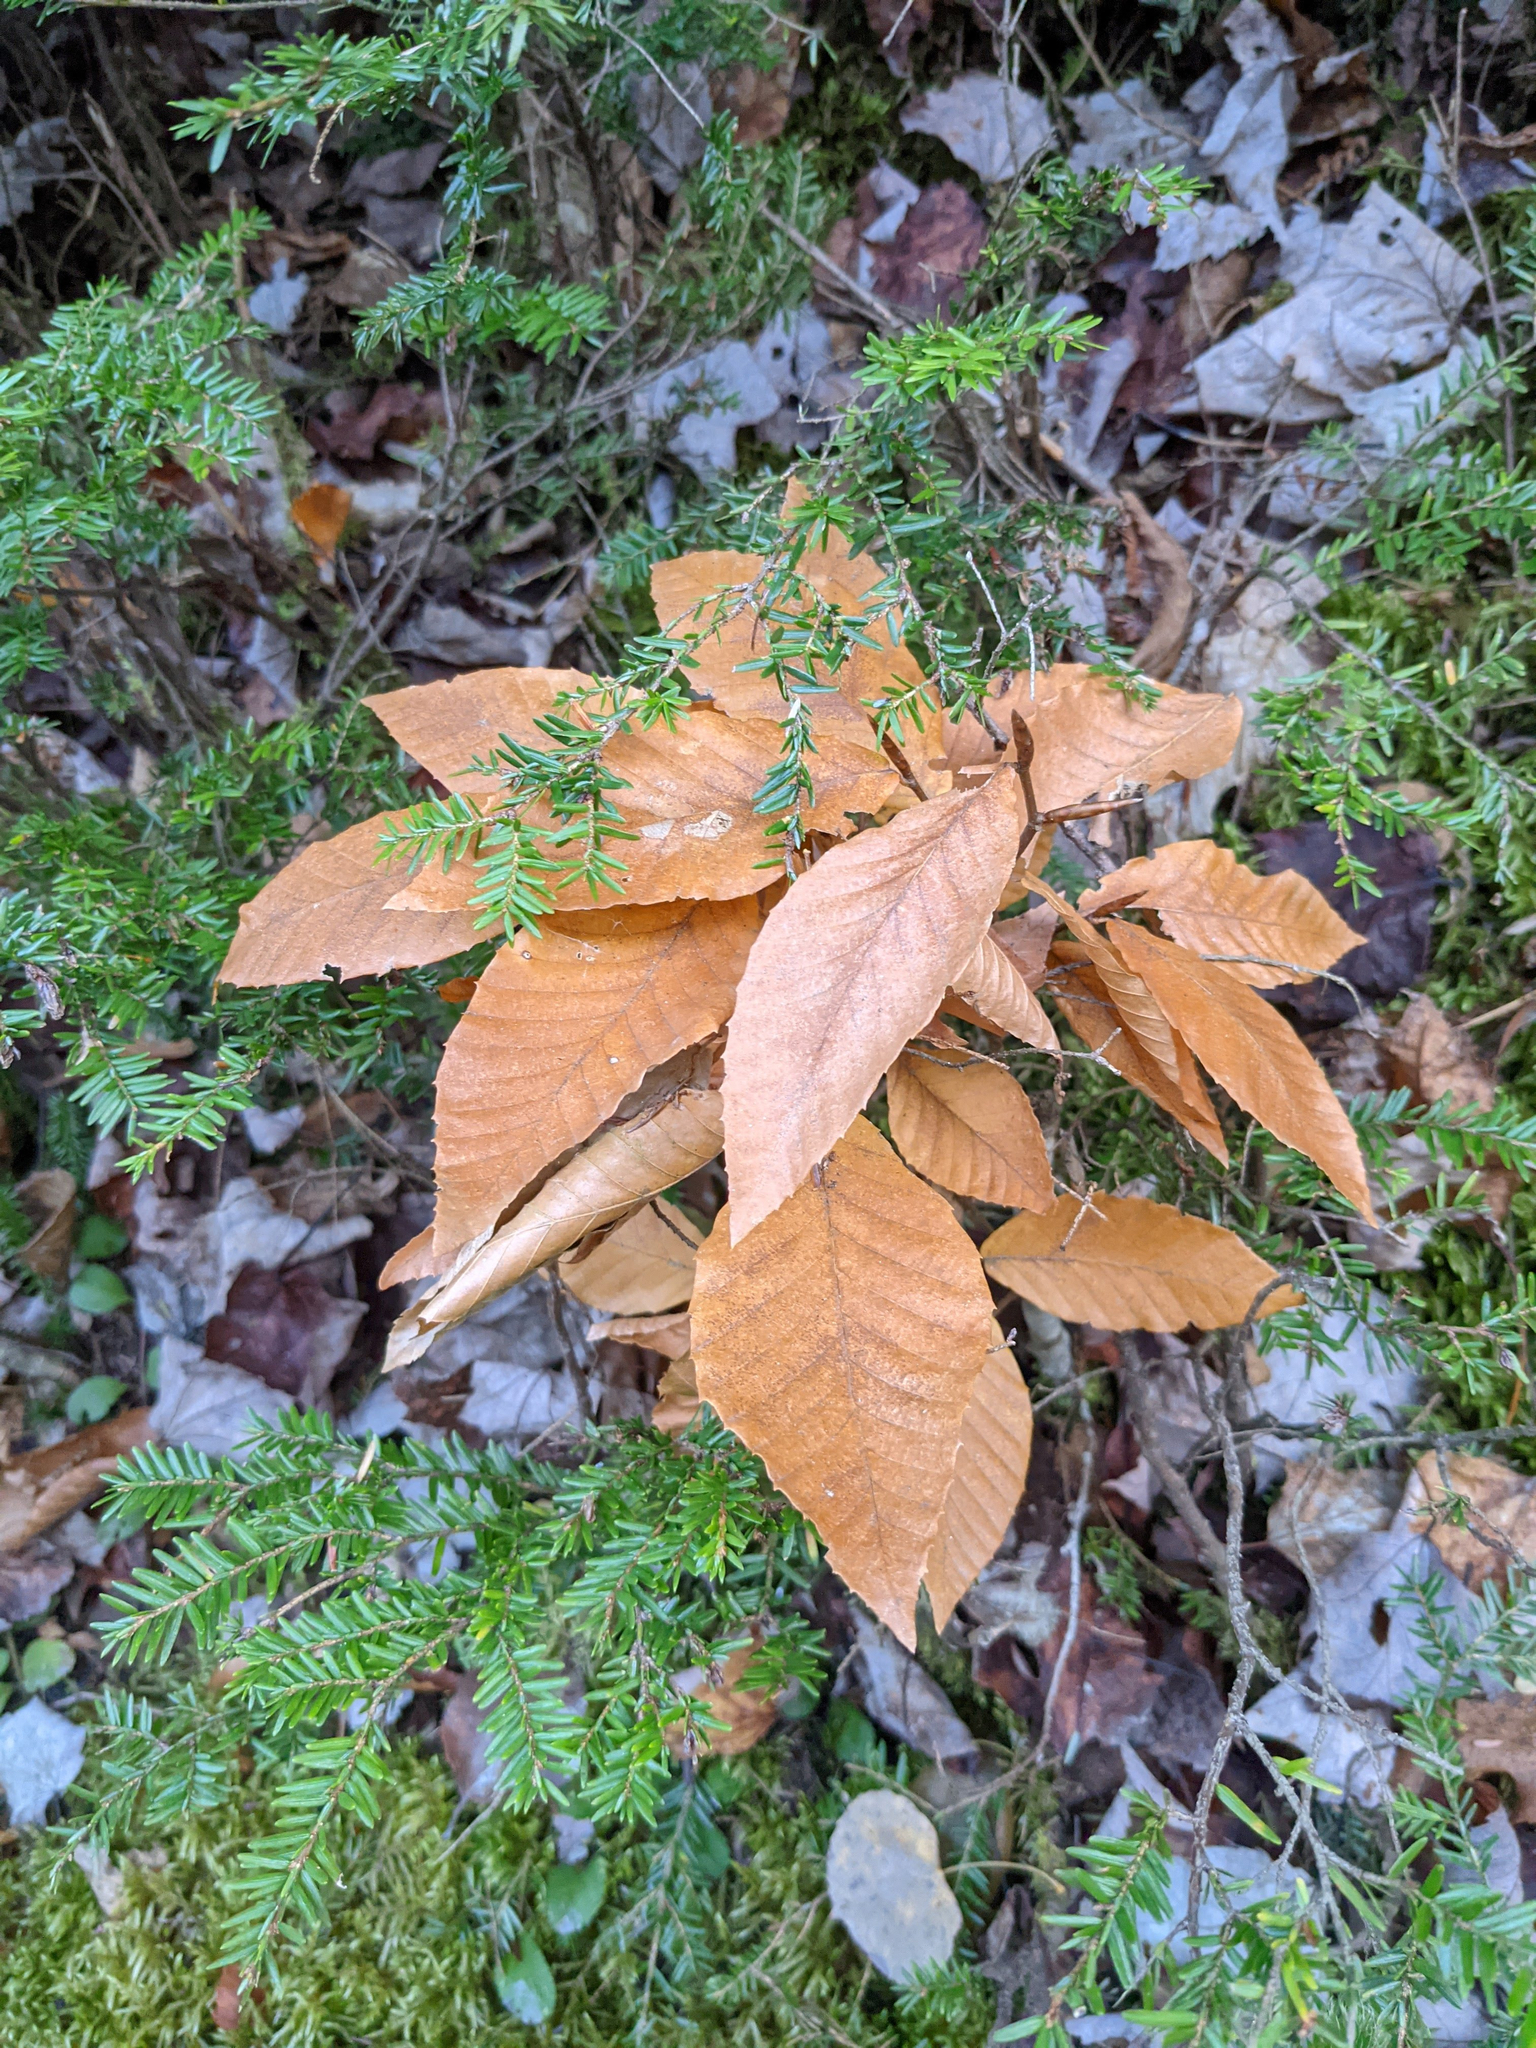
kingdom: Plantae
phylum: Tracheophyta
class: Magnoliopsida
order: Fagales
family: Fagaceae
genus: Fagus
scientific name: Fagus grandifolia
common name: American beech
